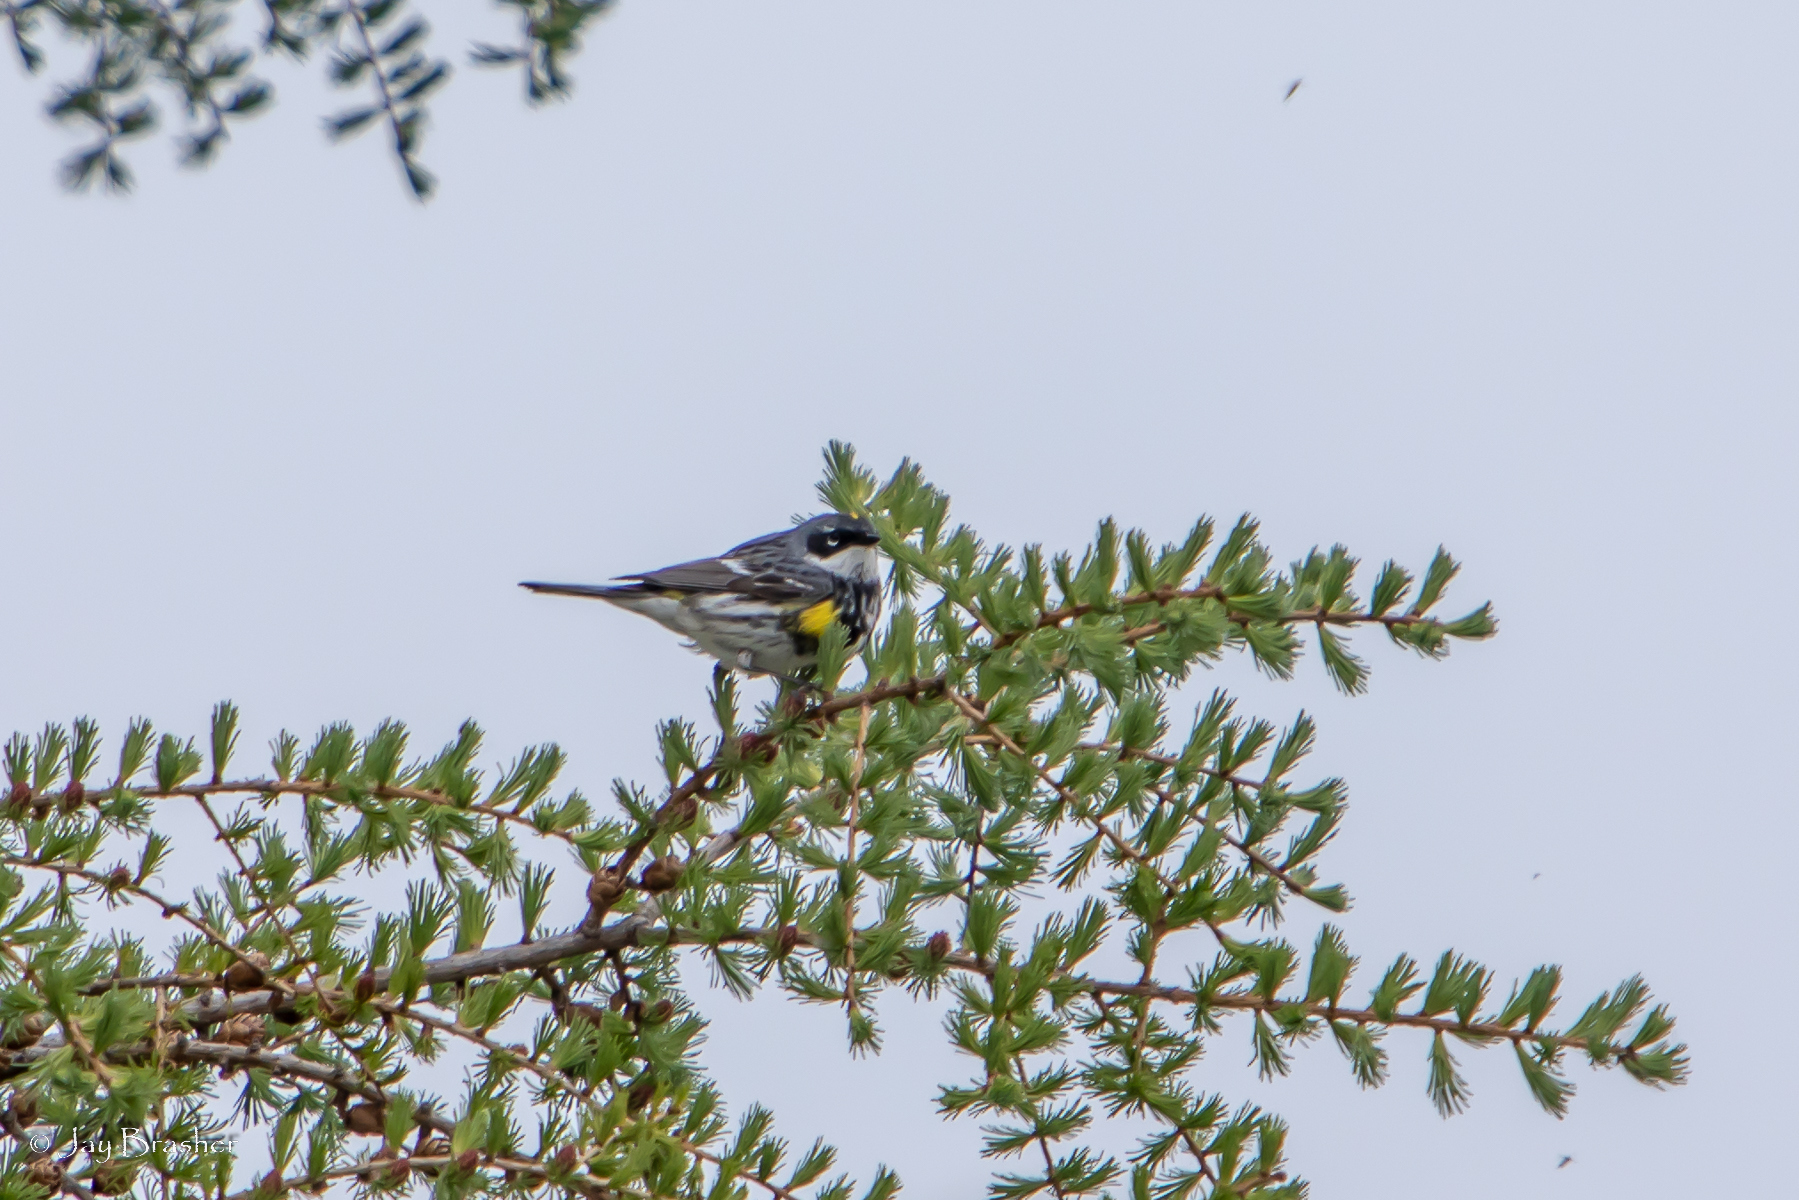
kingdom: Animalia
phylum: Chordata
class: Aves
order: Passeriformes
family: Parulidae
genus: Setophaga
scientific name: Setophaga coronata
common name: Myrtle warbler
